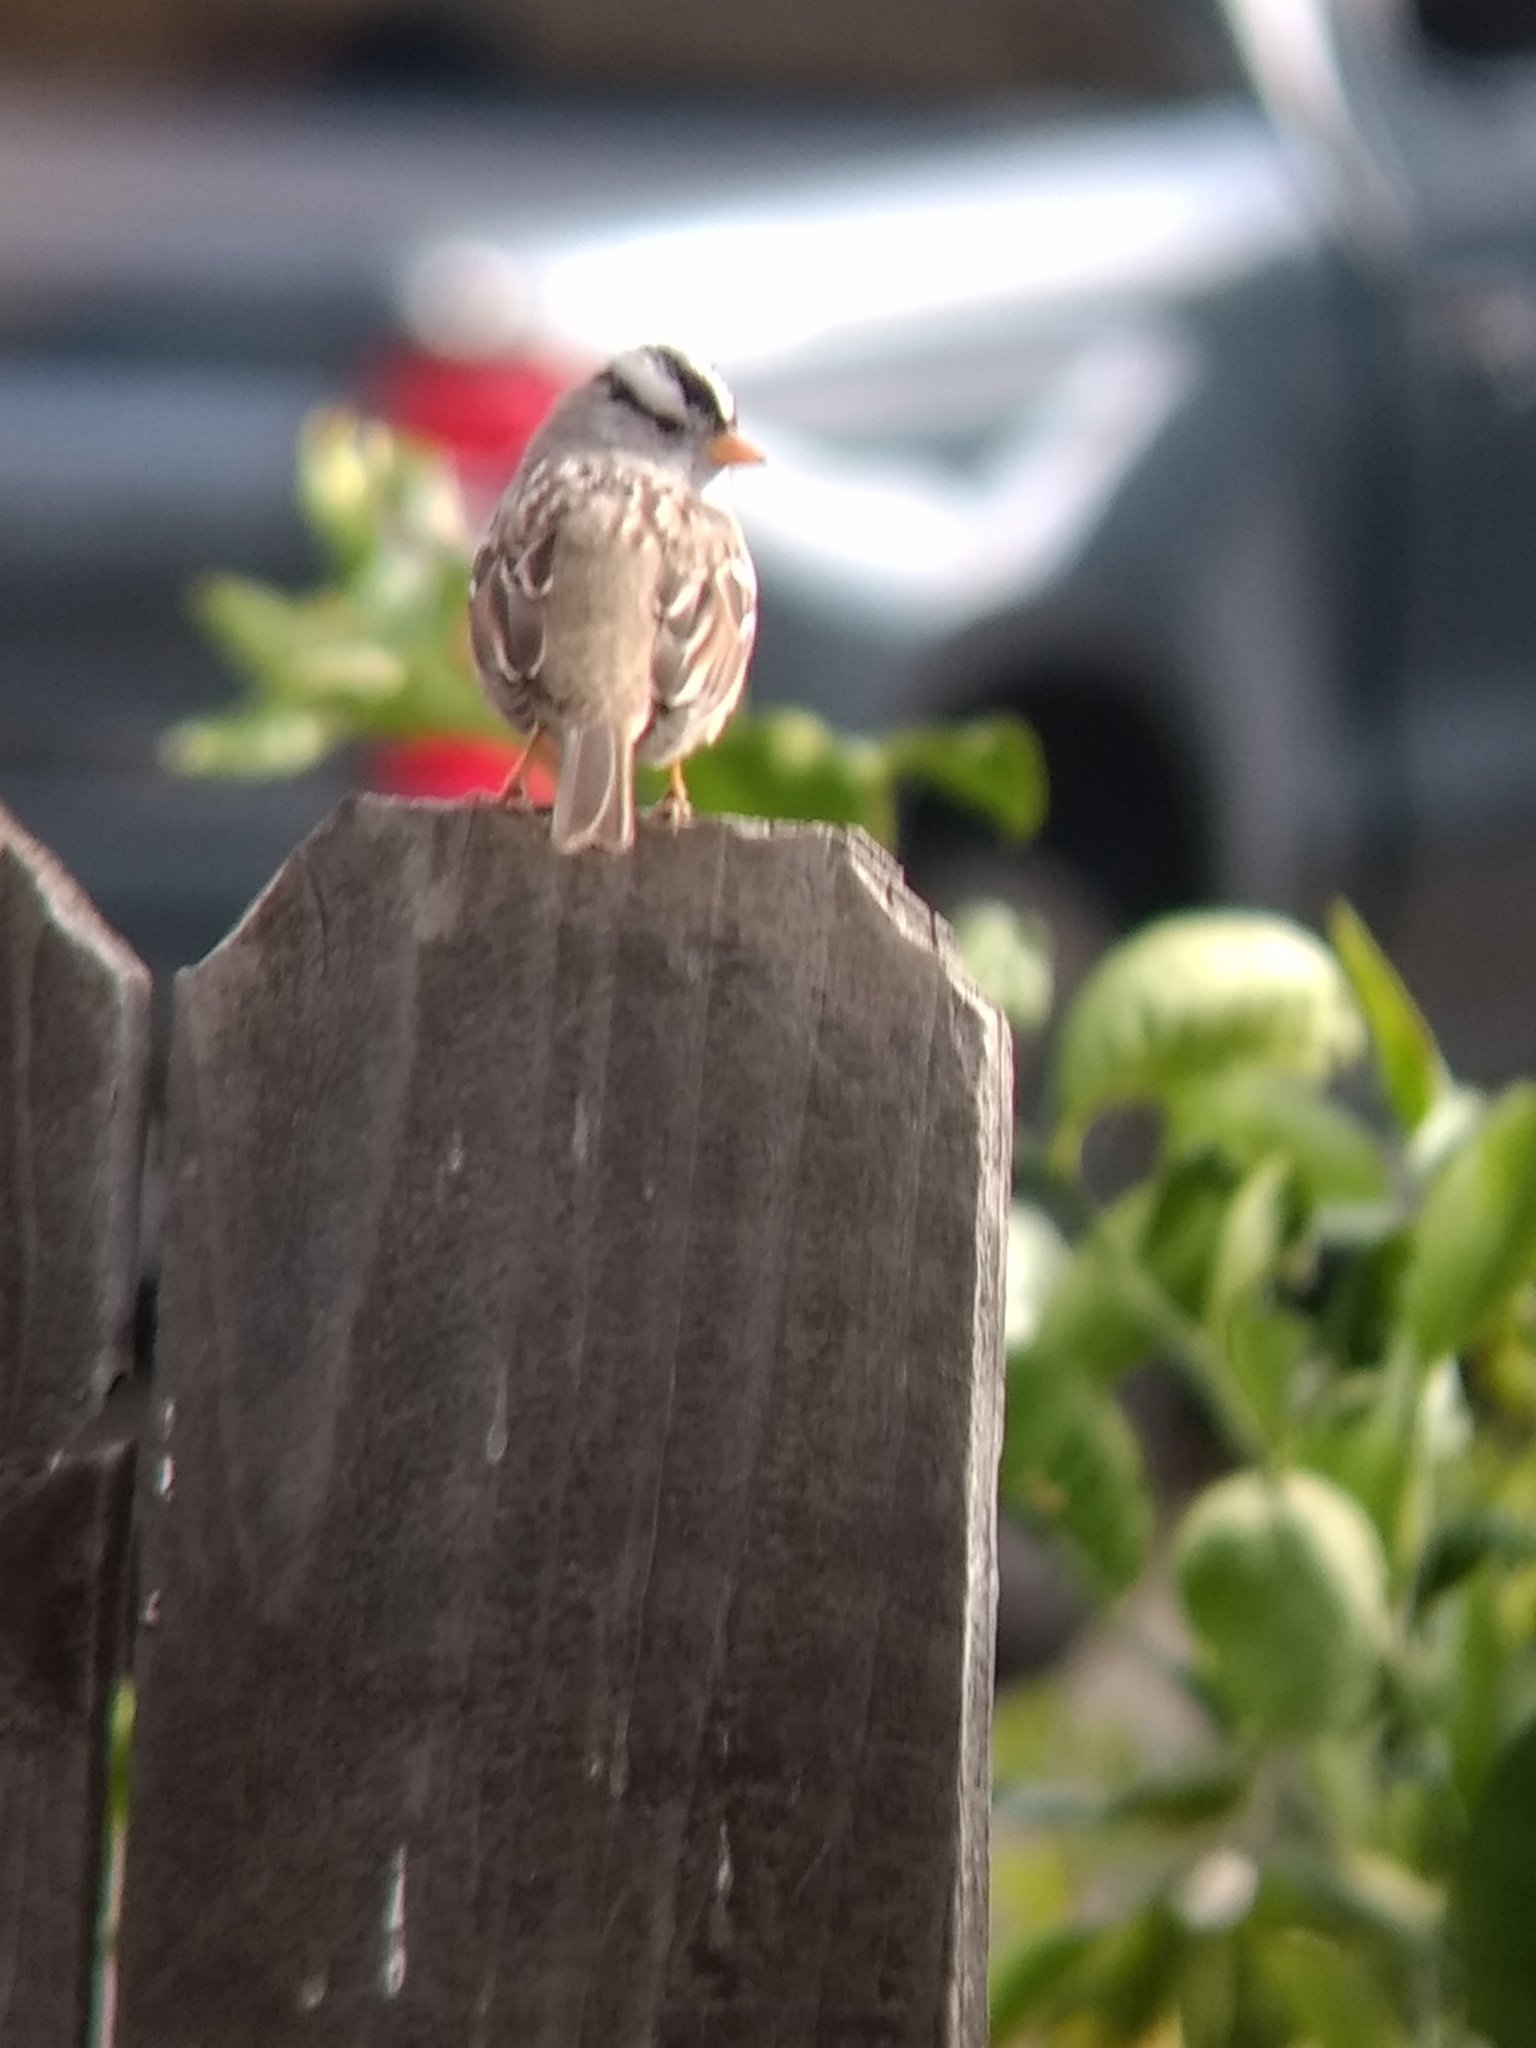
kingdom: Animalia
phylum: Chordata
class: Aves
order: Passeriformes
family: Passerellidae
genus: Zonotrichia
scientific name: Zonotrichia leucophrys
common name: White-crowned sparrow
